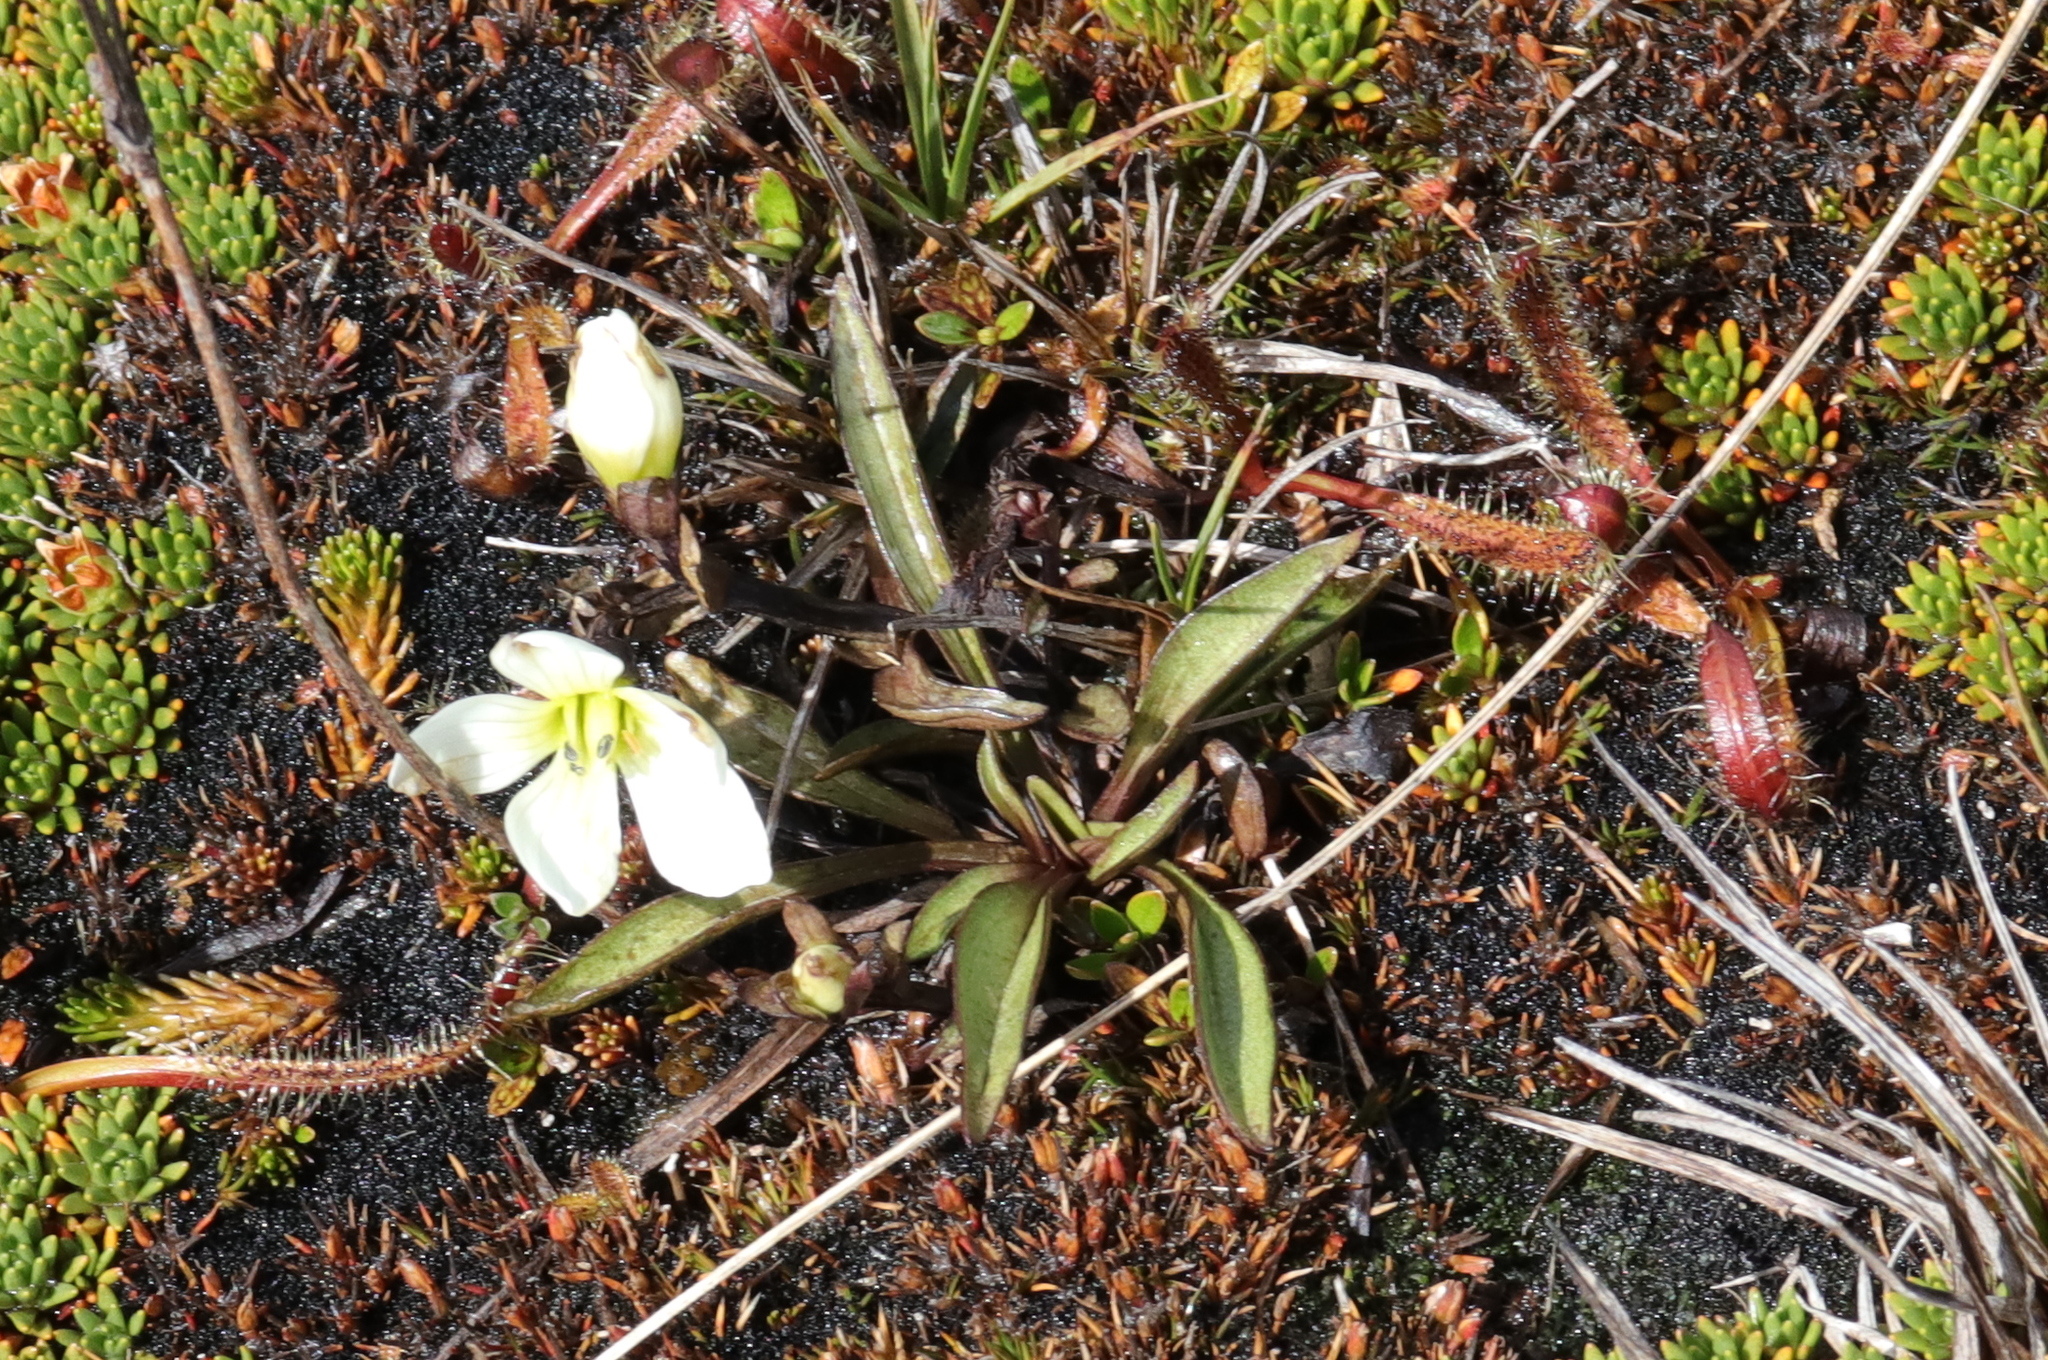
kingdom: Plantae
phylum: Tracheophyta
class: Magnoliopsida
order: Gentianales
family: Gentianaceae
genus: Gentianella
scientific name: Gentianella serotina
